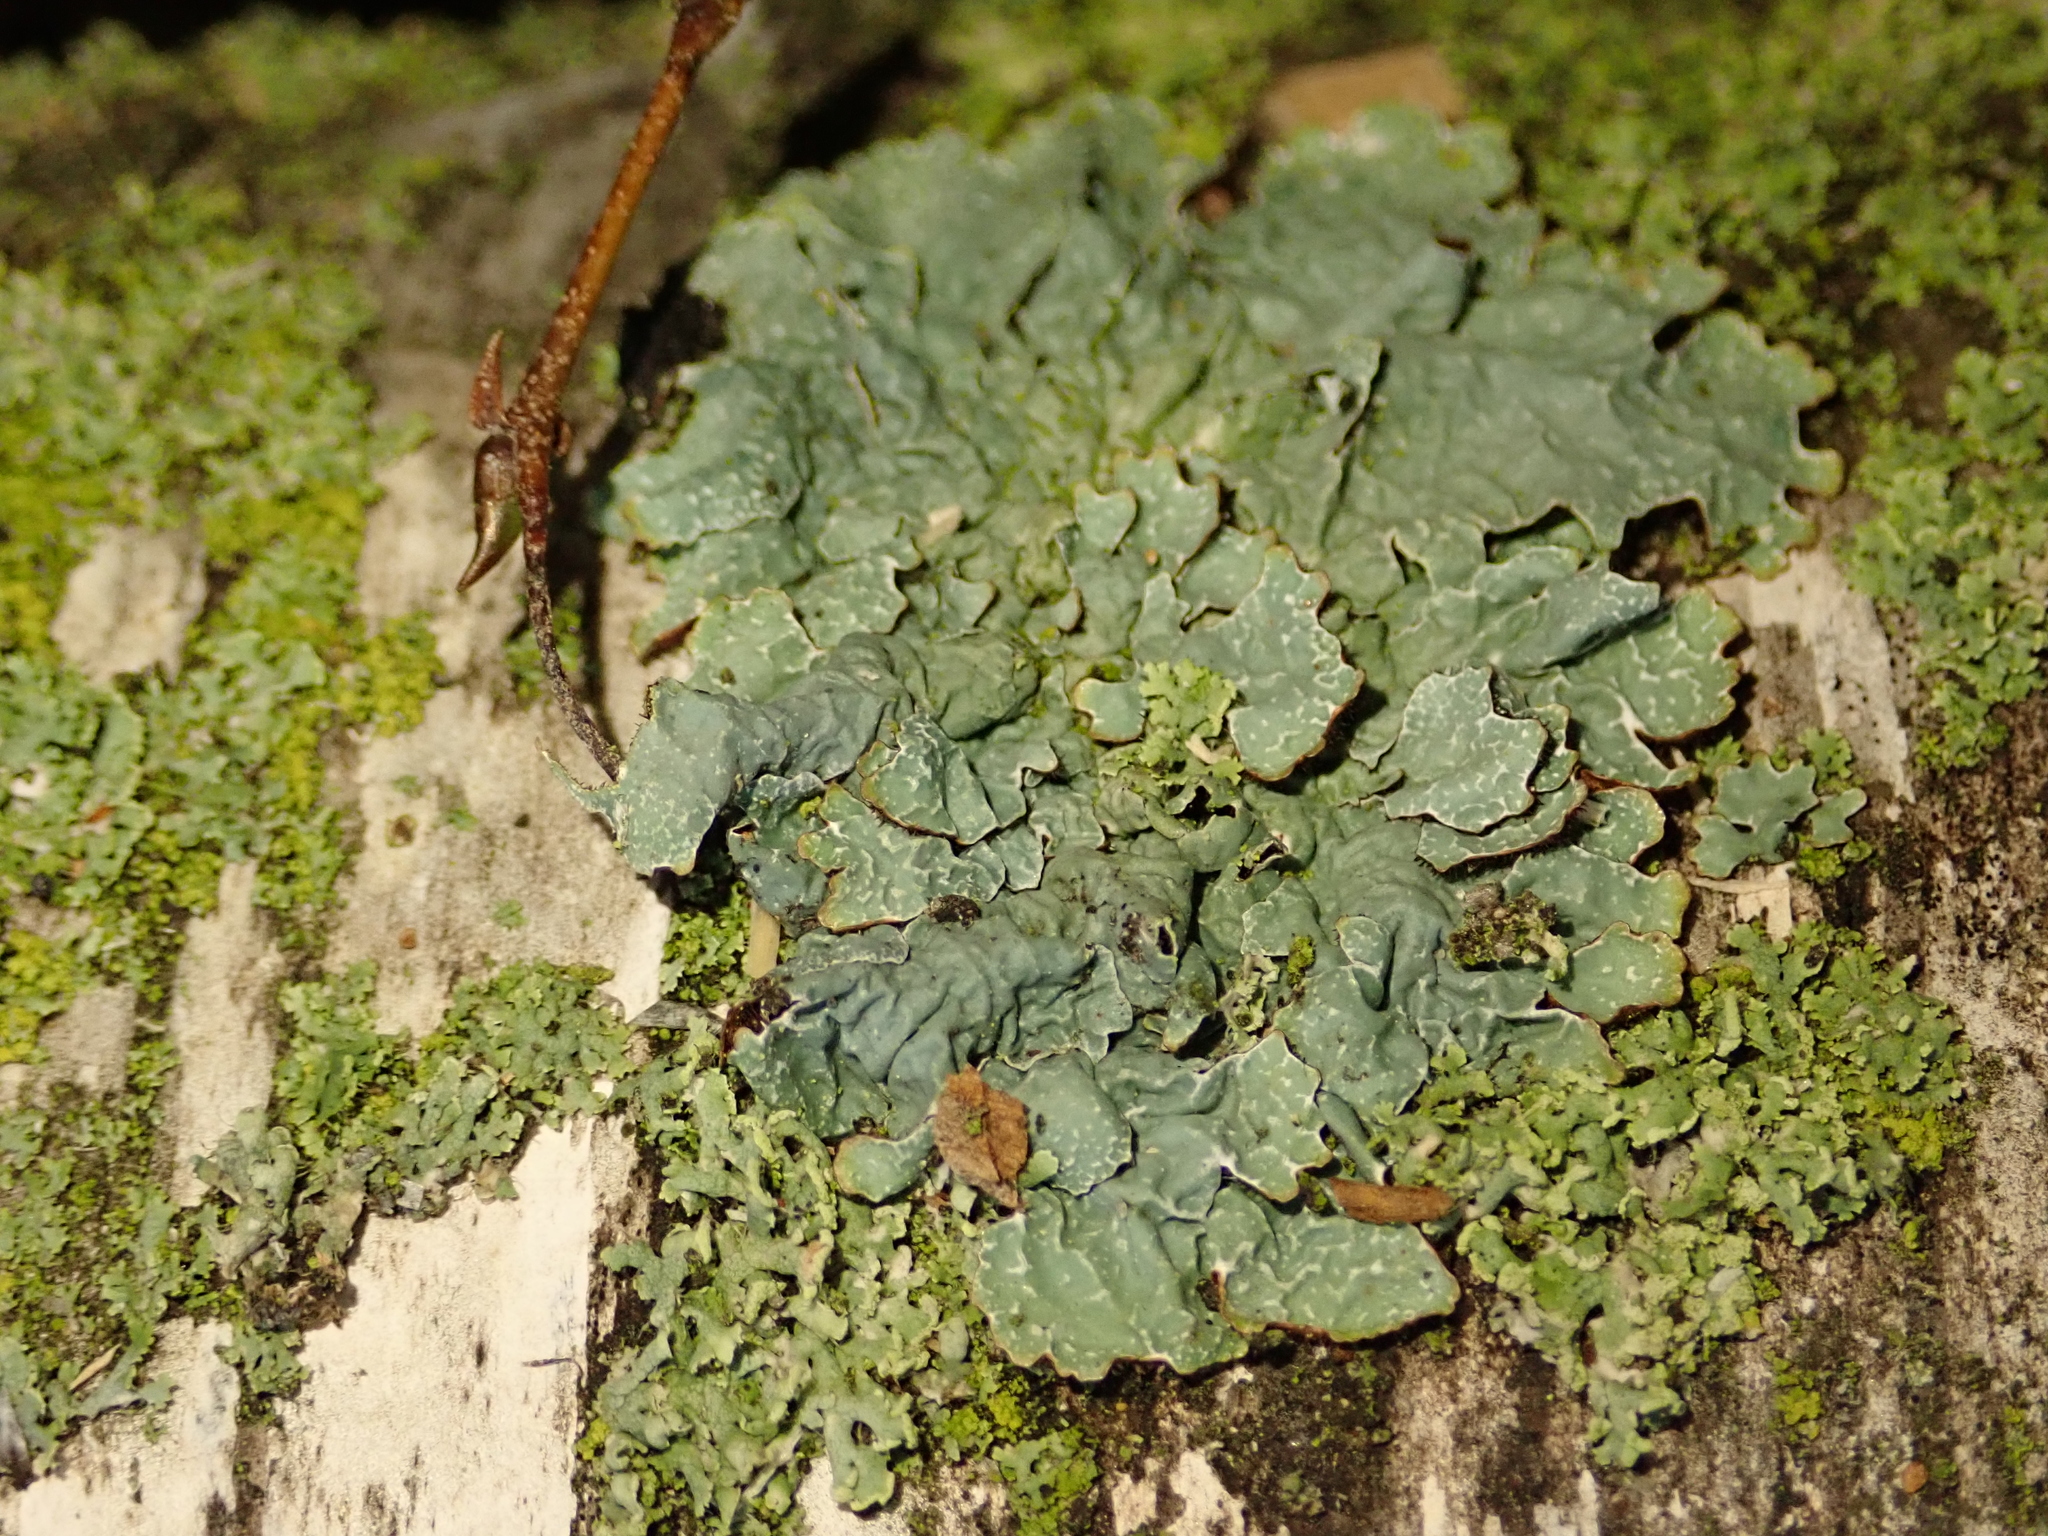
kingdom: Fungi
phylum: Ascomycota
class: Lecanoromycetes
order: Lecanorales
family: Parmeliaceae
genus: Parmelia
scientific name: Parmelia sulcata
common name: Netted shield lichen
